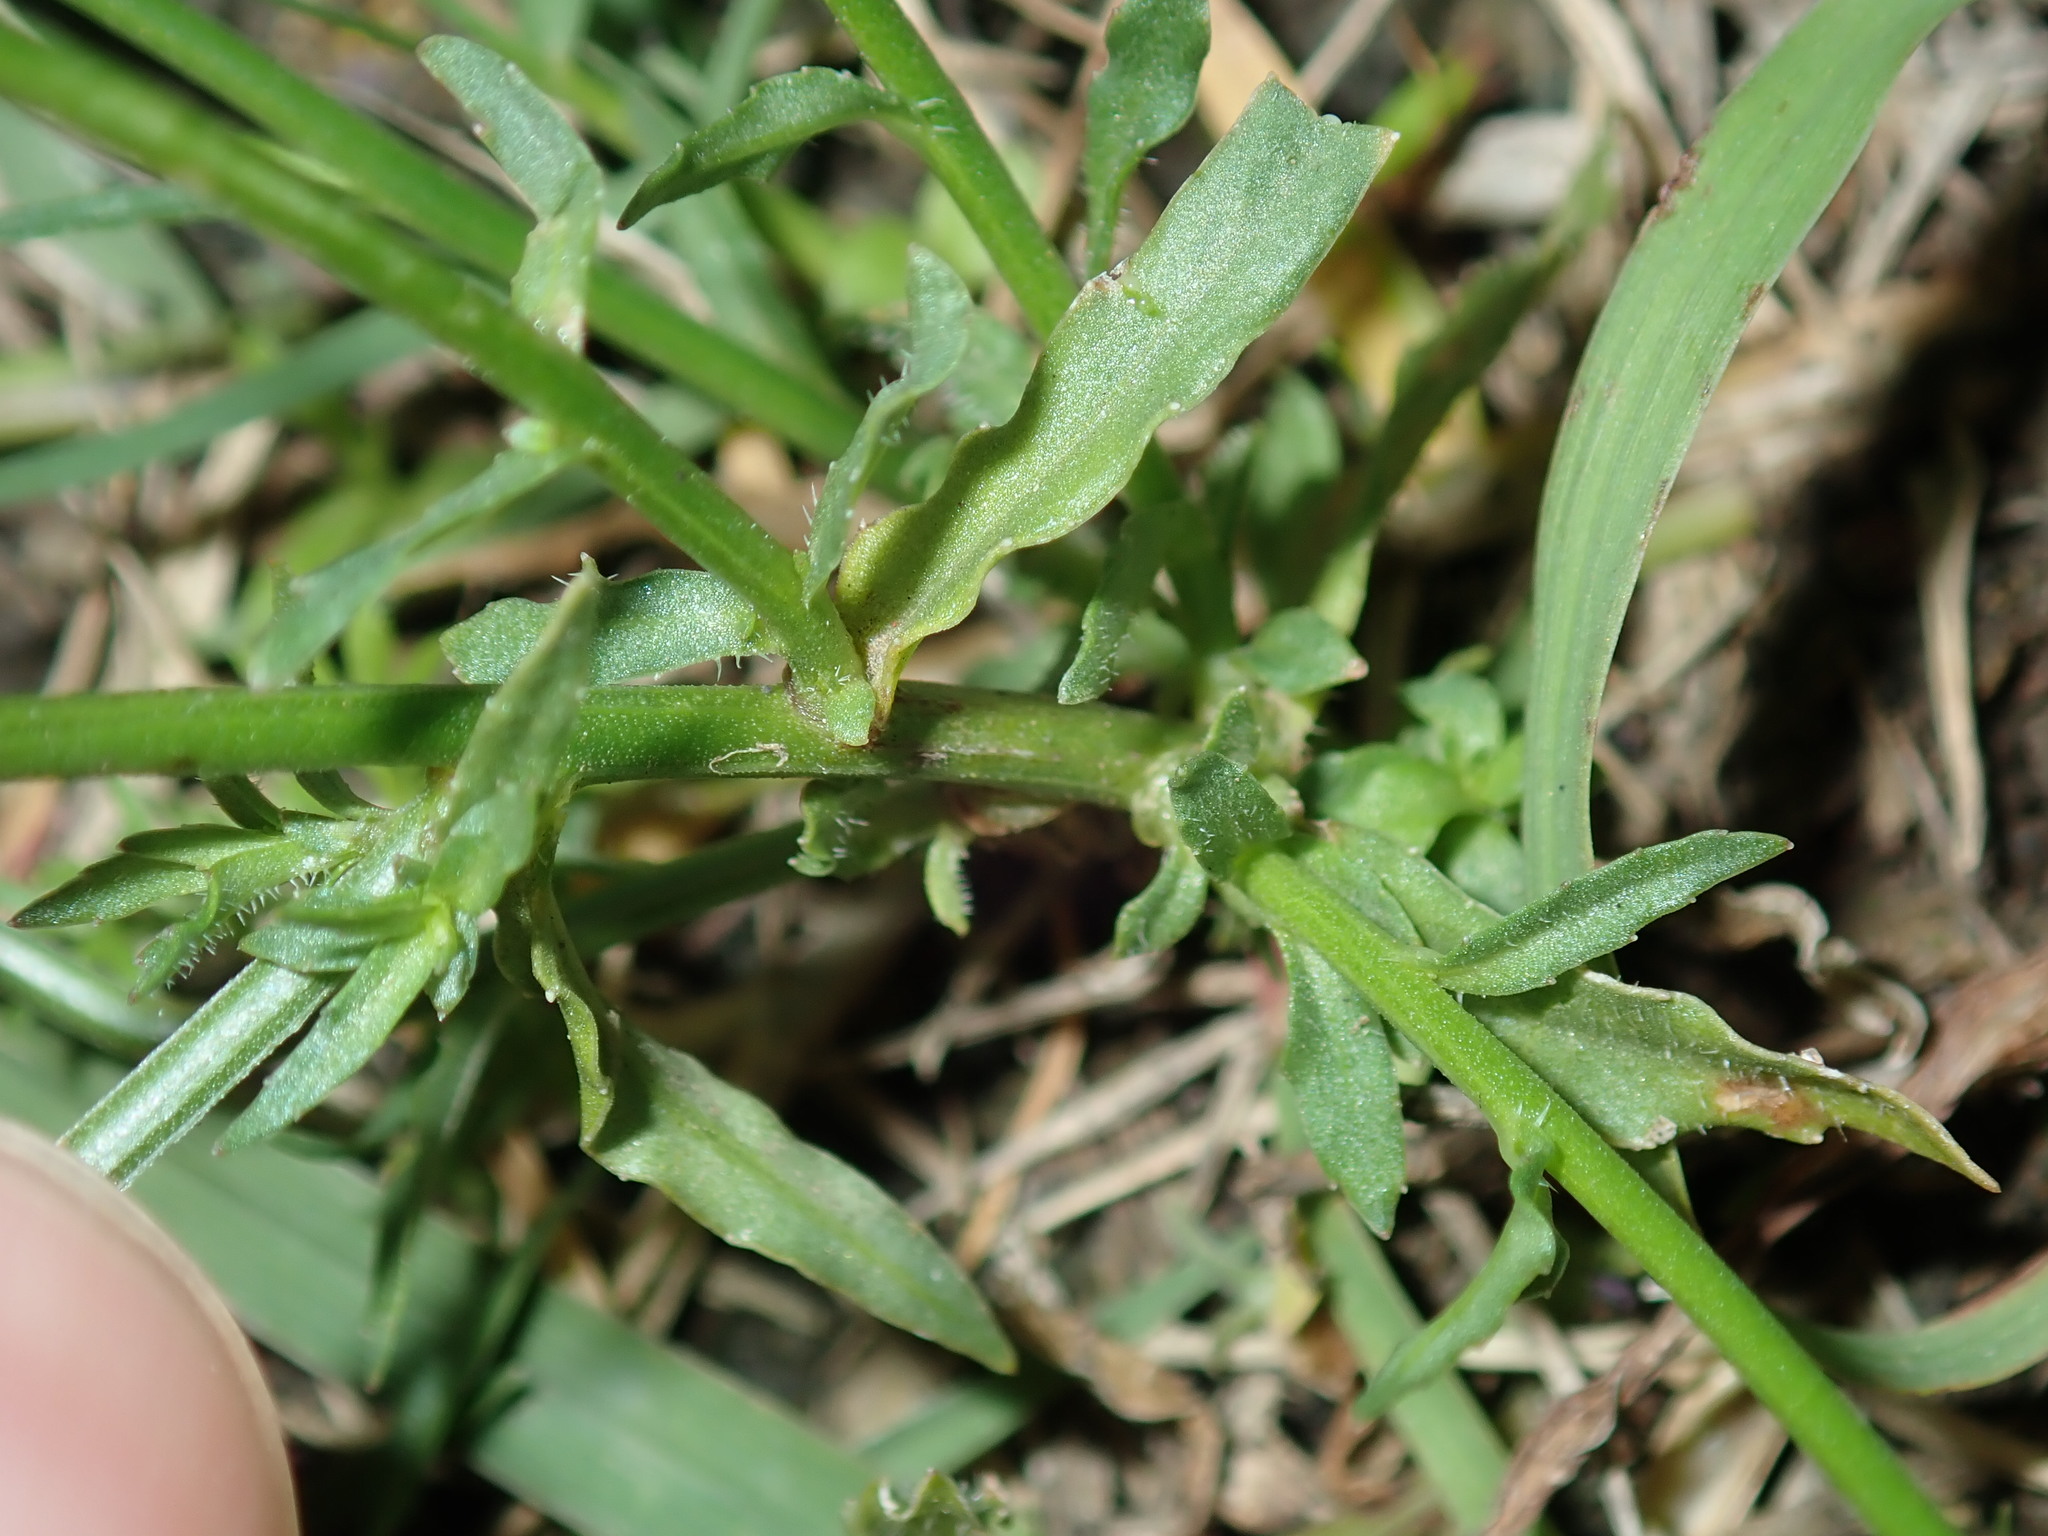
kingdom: Plantae
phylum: Tracheophyta
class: Magnoliopsida
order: Asterales
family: Campanulaceae
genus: Wahlenbergia
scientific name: Wahlenbergia gracilis
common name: Harebell
